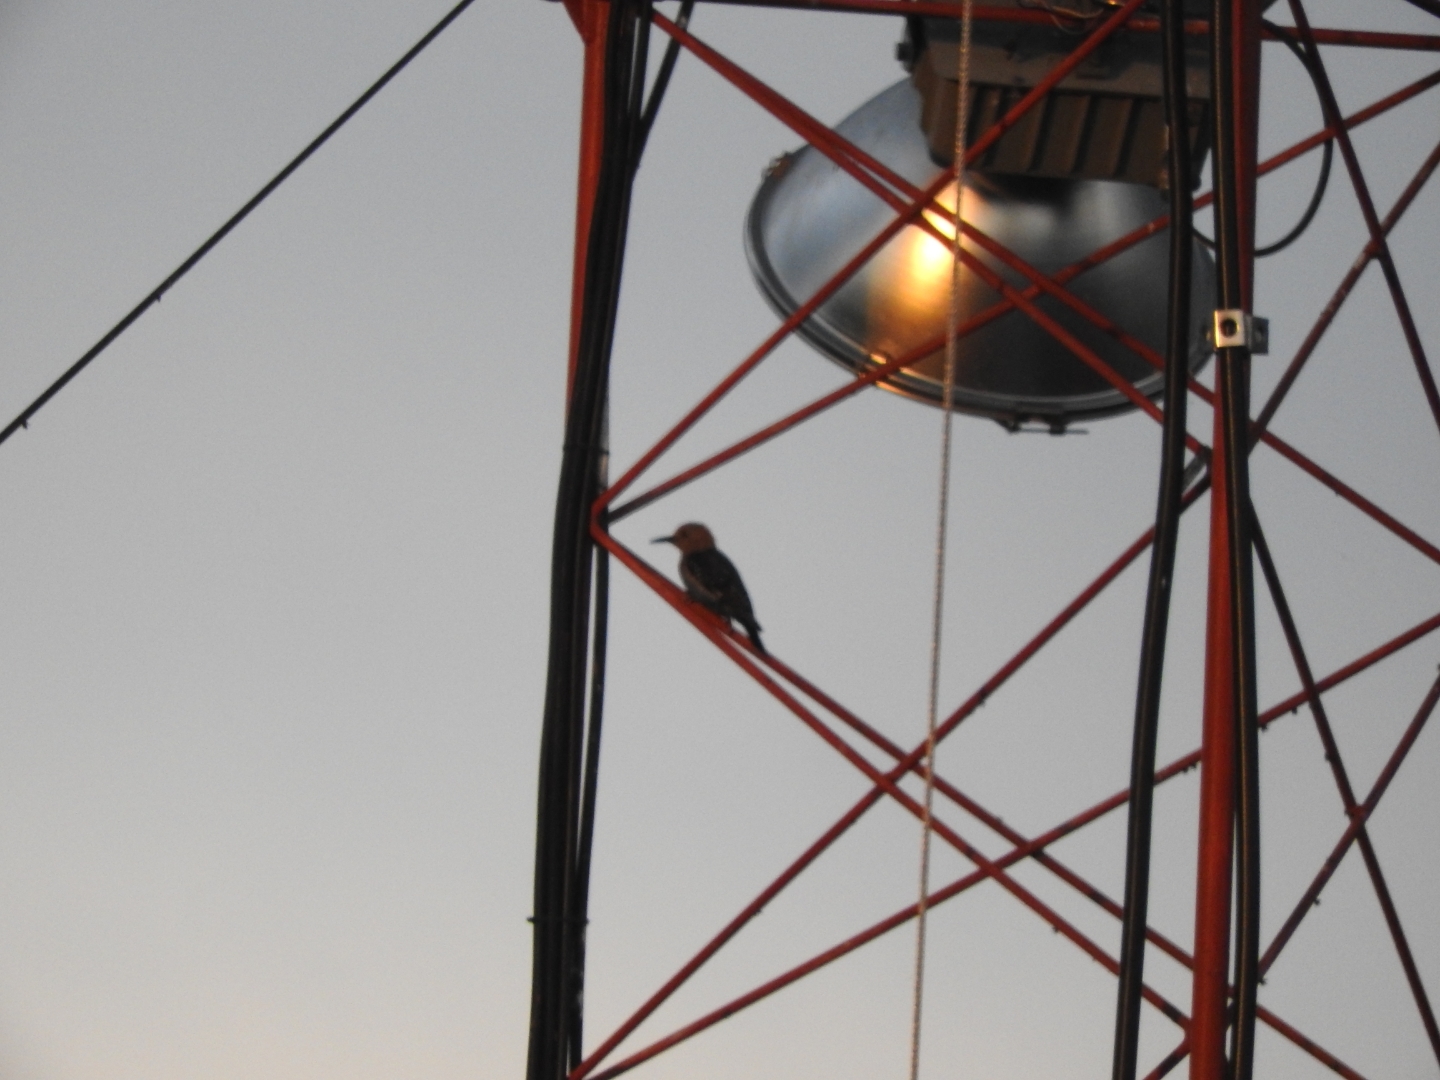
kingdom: Animalia
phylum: Chordata
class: Aves
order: Piciformes
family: Picidae
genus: Melanerpes
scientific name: Melanerpes aurifrons
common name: Golden-fronted woodpecker
